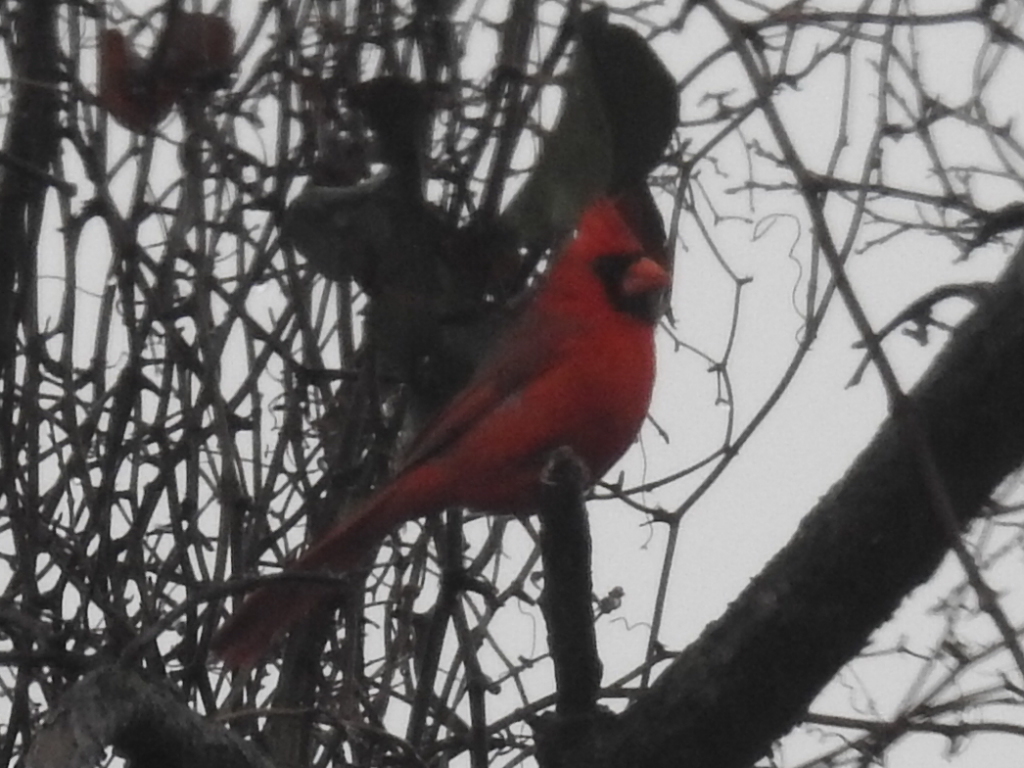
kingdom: Animalia
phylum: Chordata
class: Aves
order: Passeriformes
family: Cardinalidae
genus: Cardinalis
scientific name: Cardinalis cardinalis
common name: Northern cardinal
